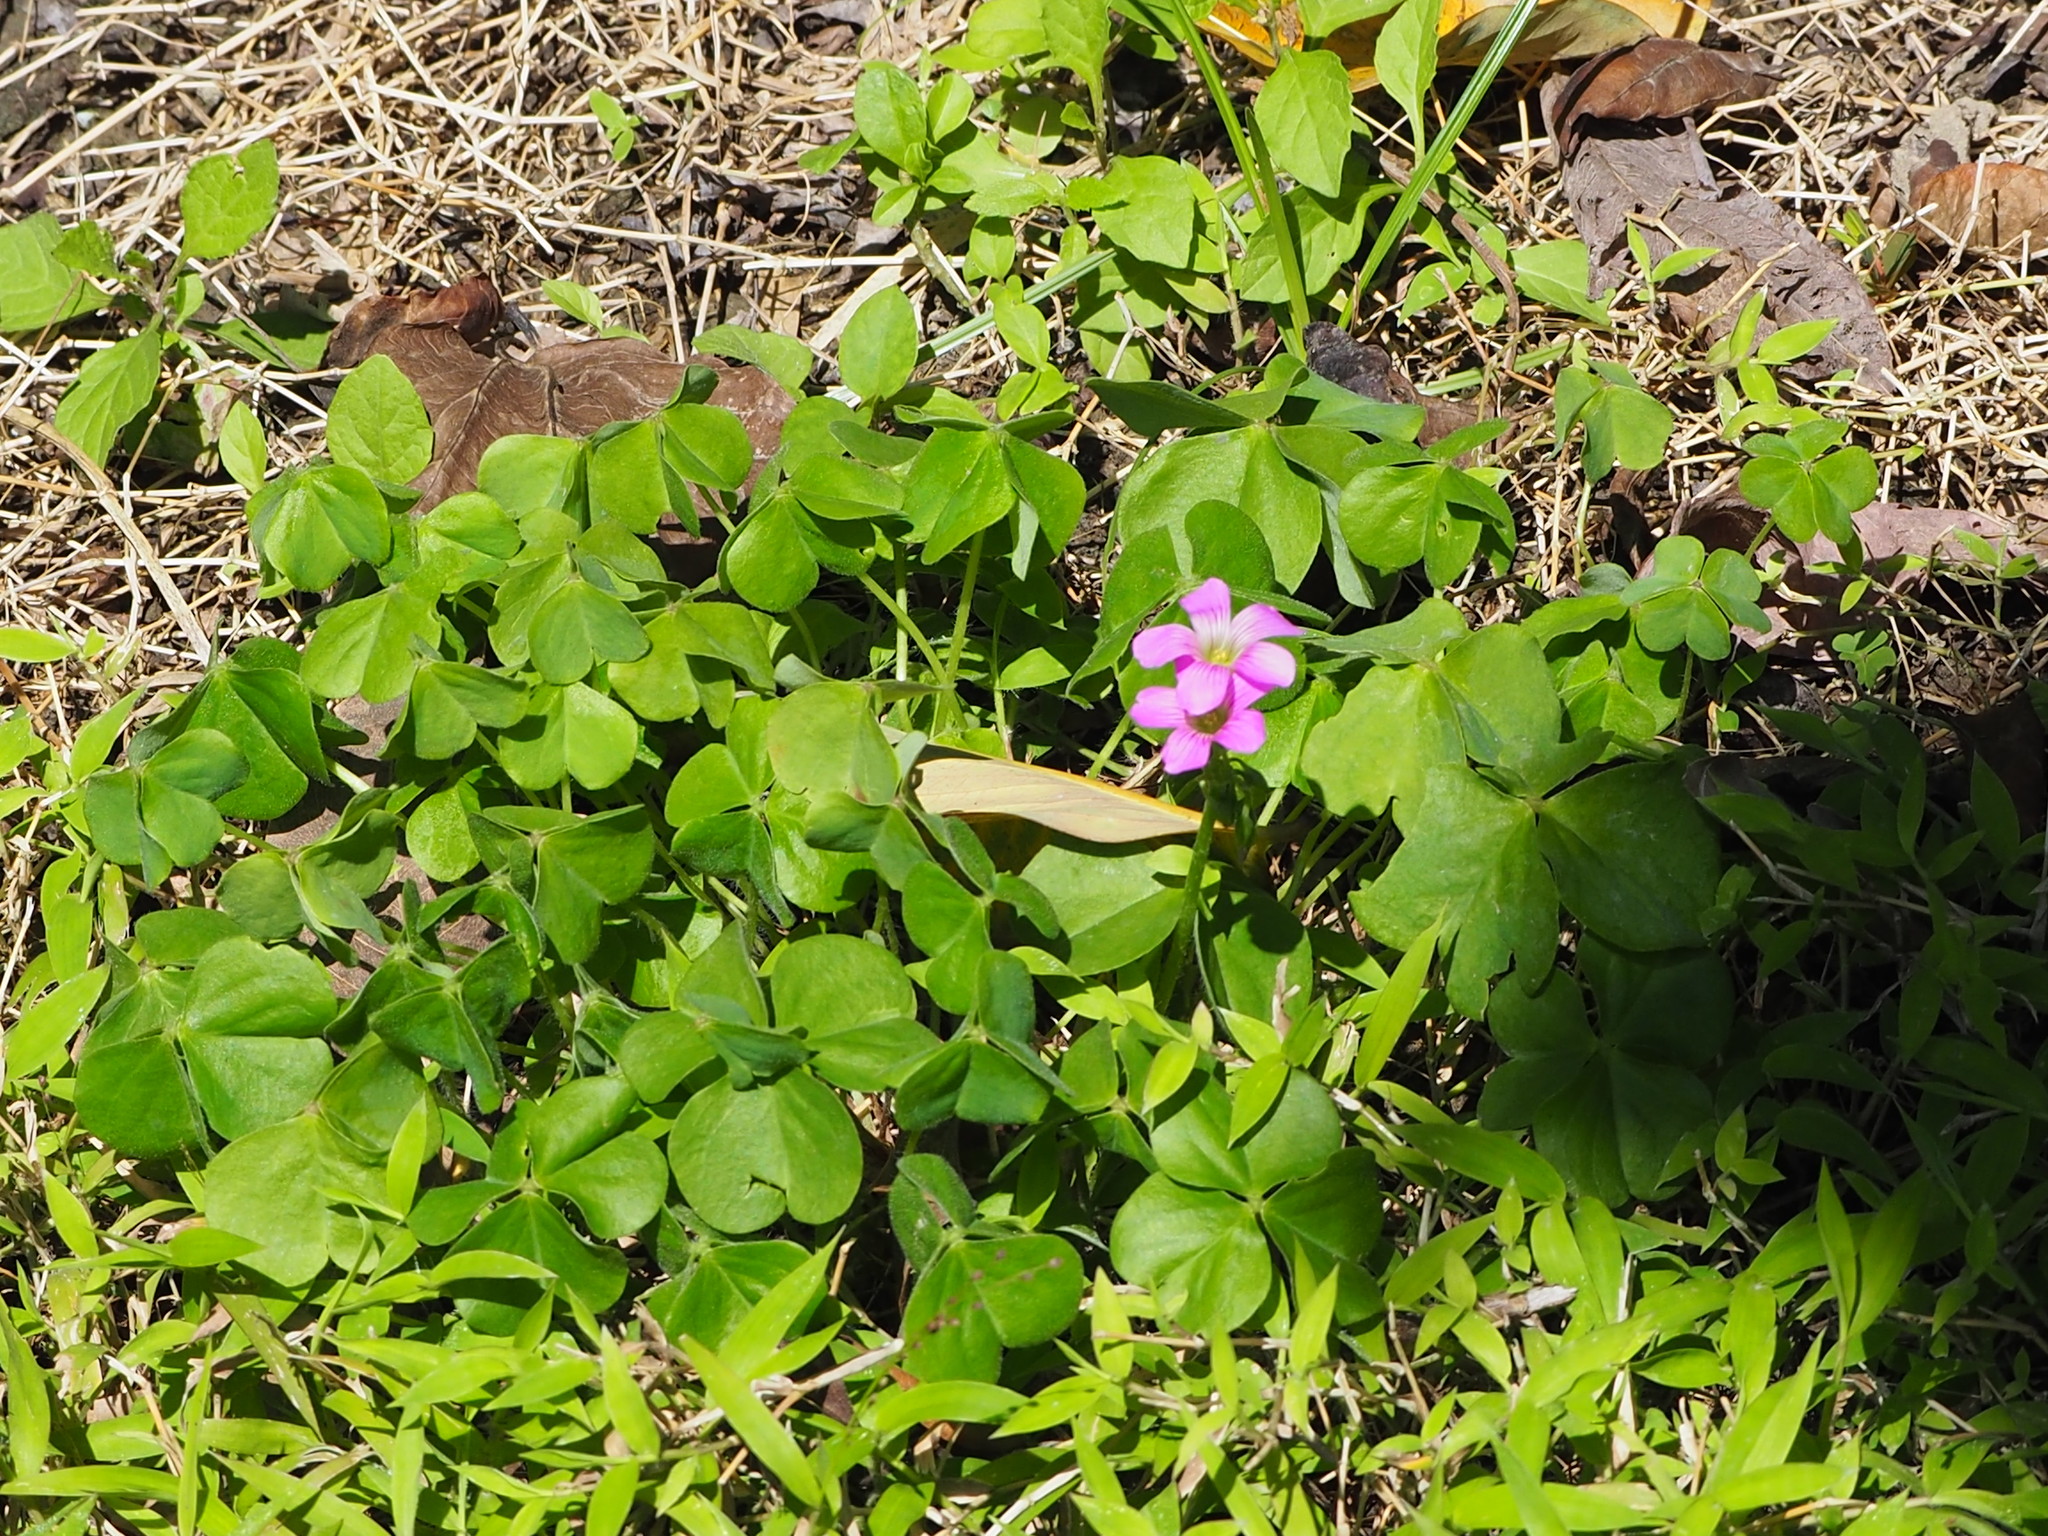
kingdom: Plantae
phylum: Tracheophyta
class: Magnoliopsida
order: Oxalidales
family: Oxalidaceae
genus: Oxalis
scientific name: Oxalis debilis
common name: Large-flowered pink-sorrel
